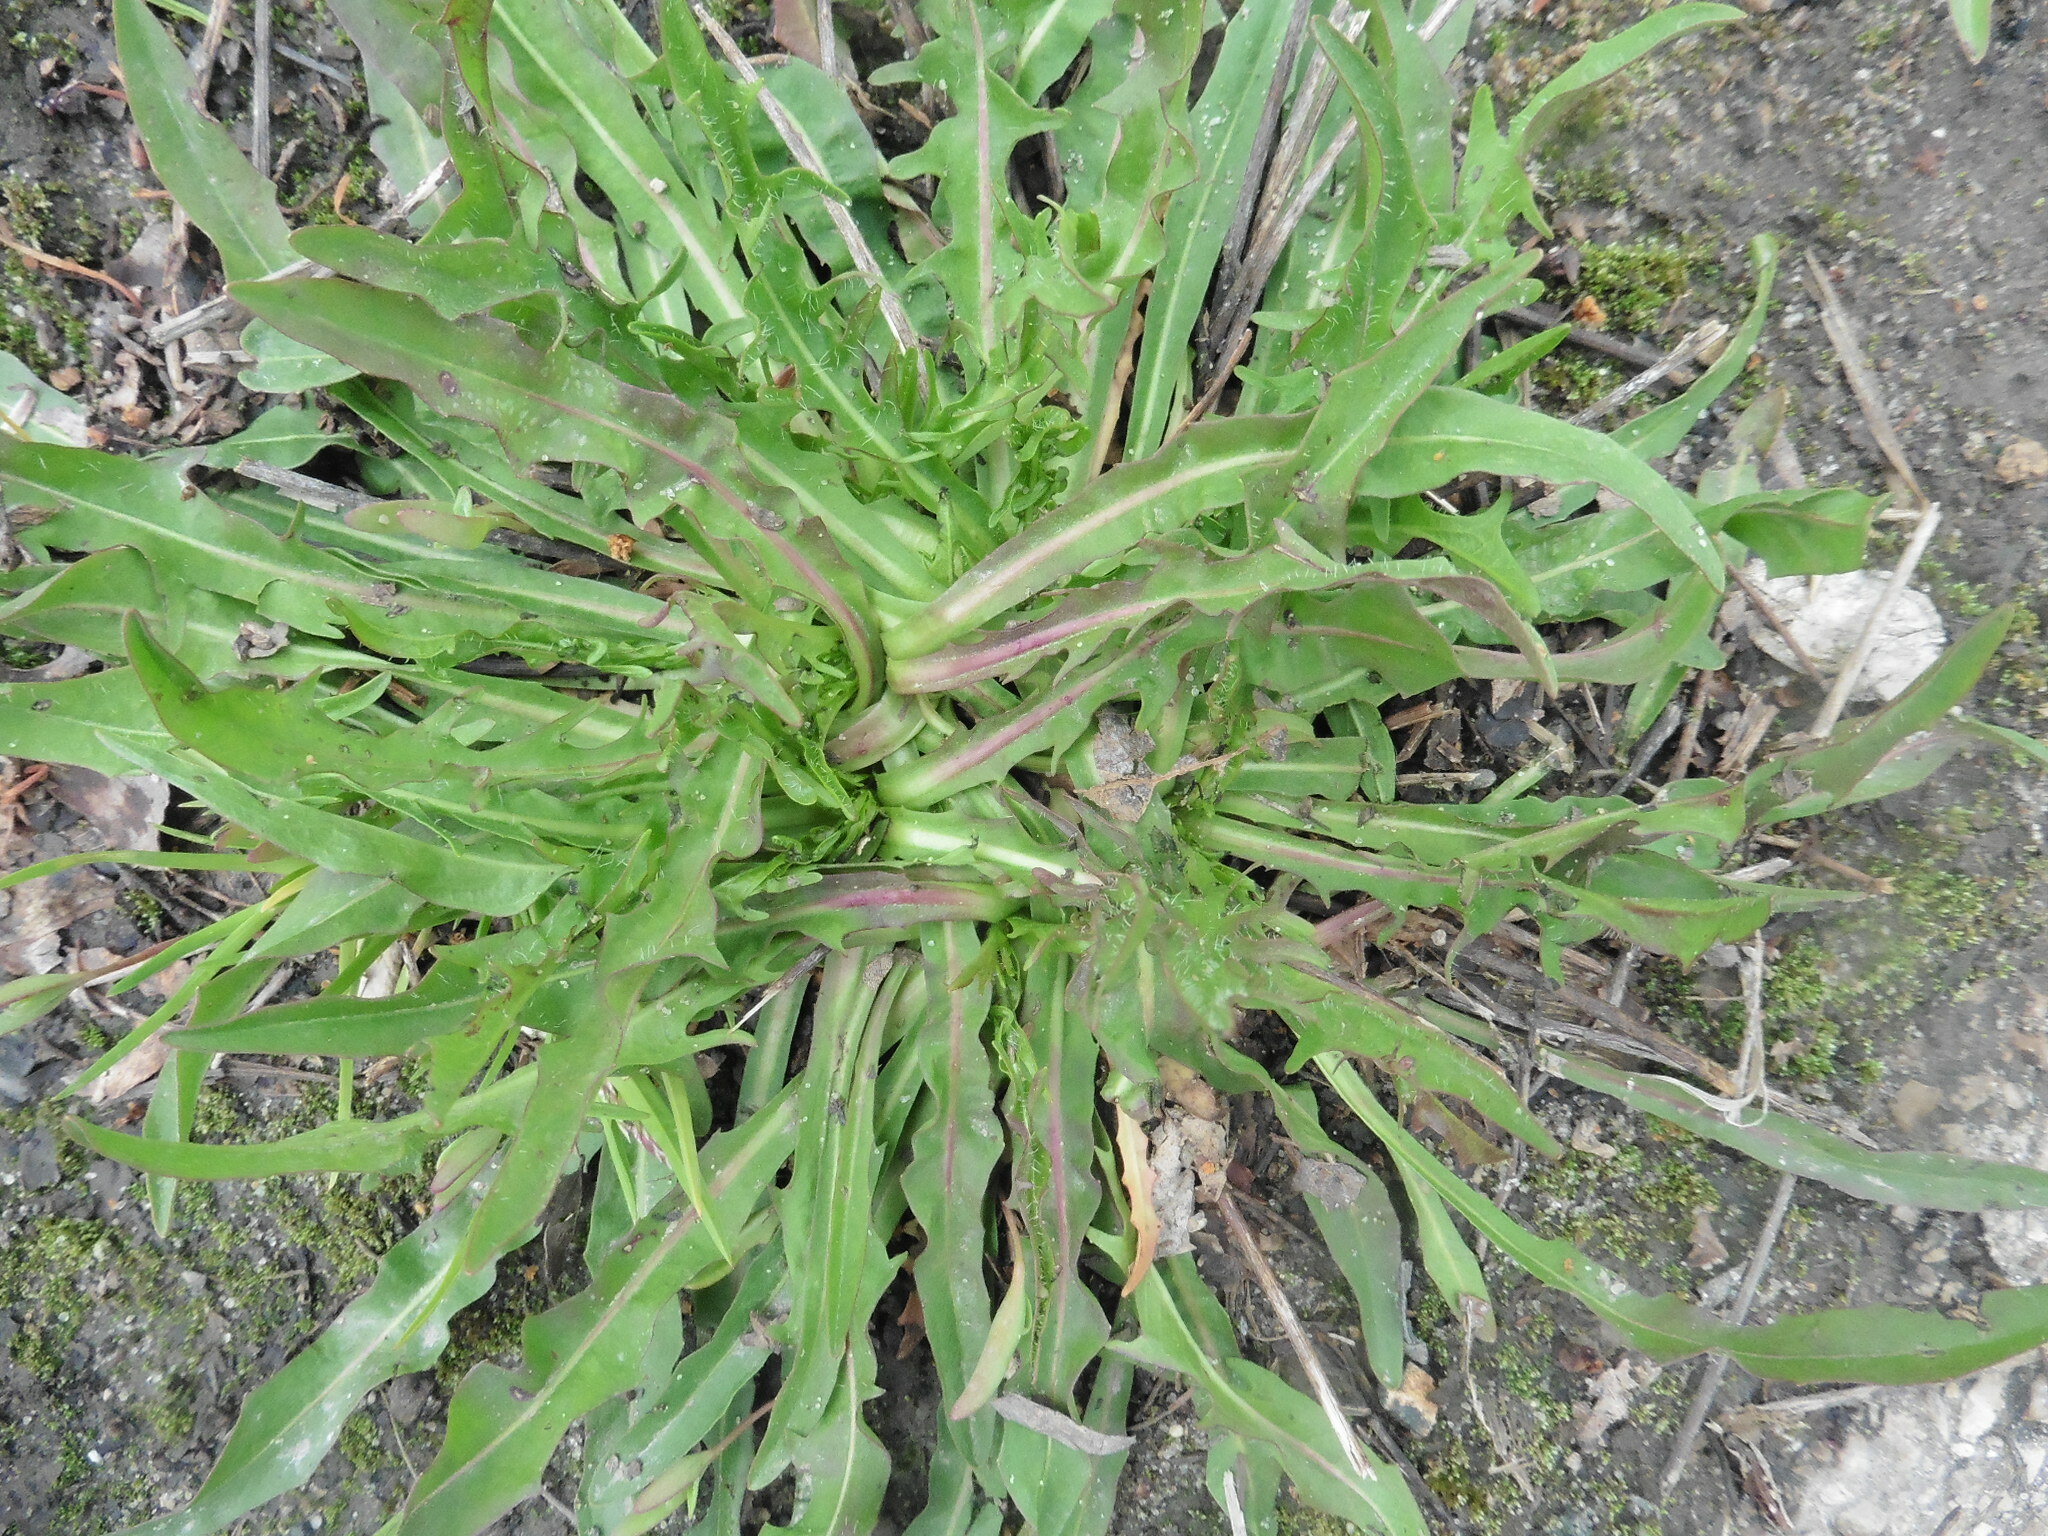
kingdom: Plantae
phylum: Tracheophyta
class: Magnoliopsida
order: Asterales
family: Asteraceae
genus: Scorzoneroides
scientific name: Scorzoneroides autumnalis
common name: Autumn hawkbit
